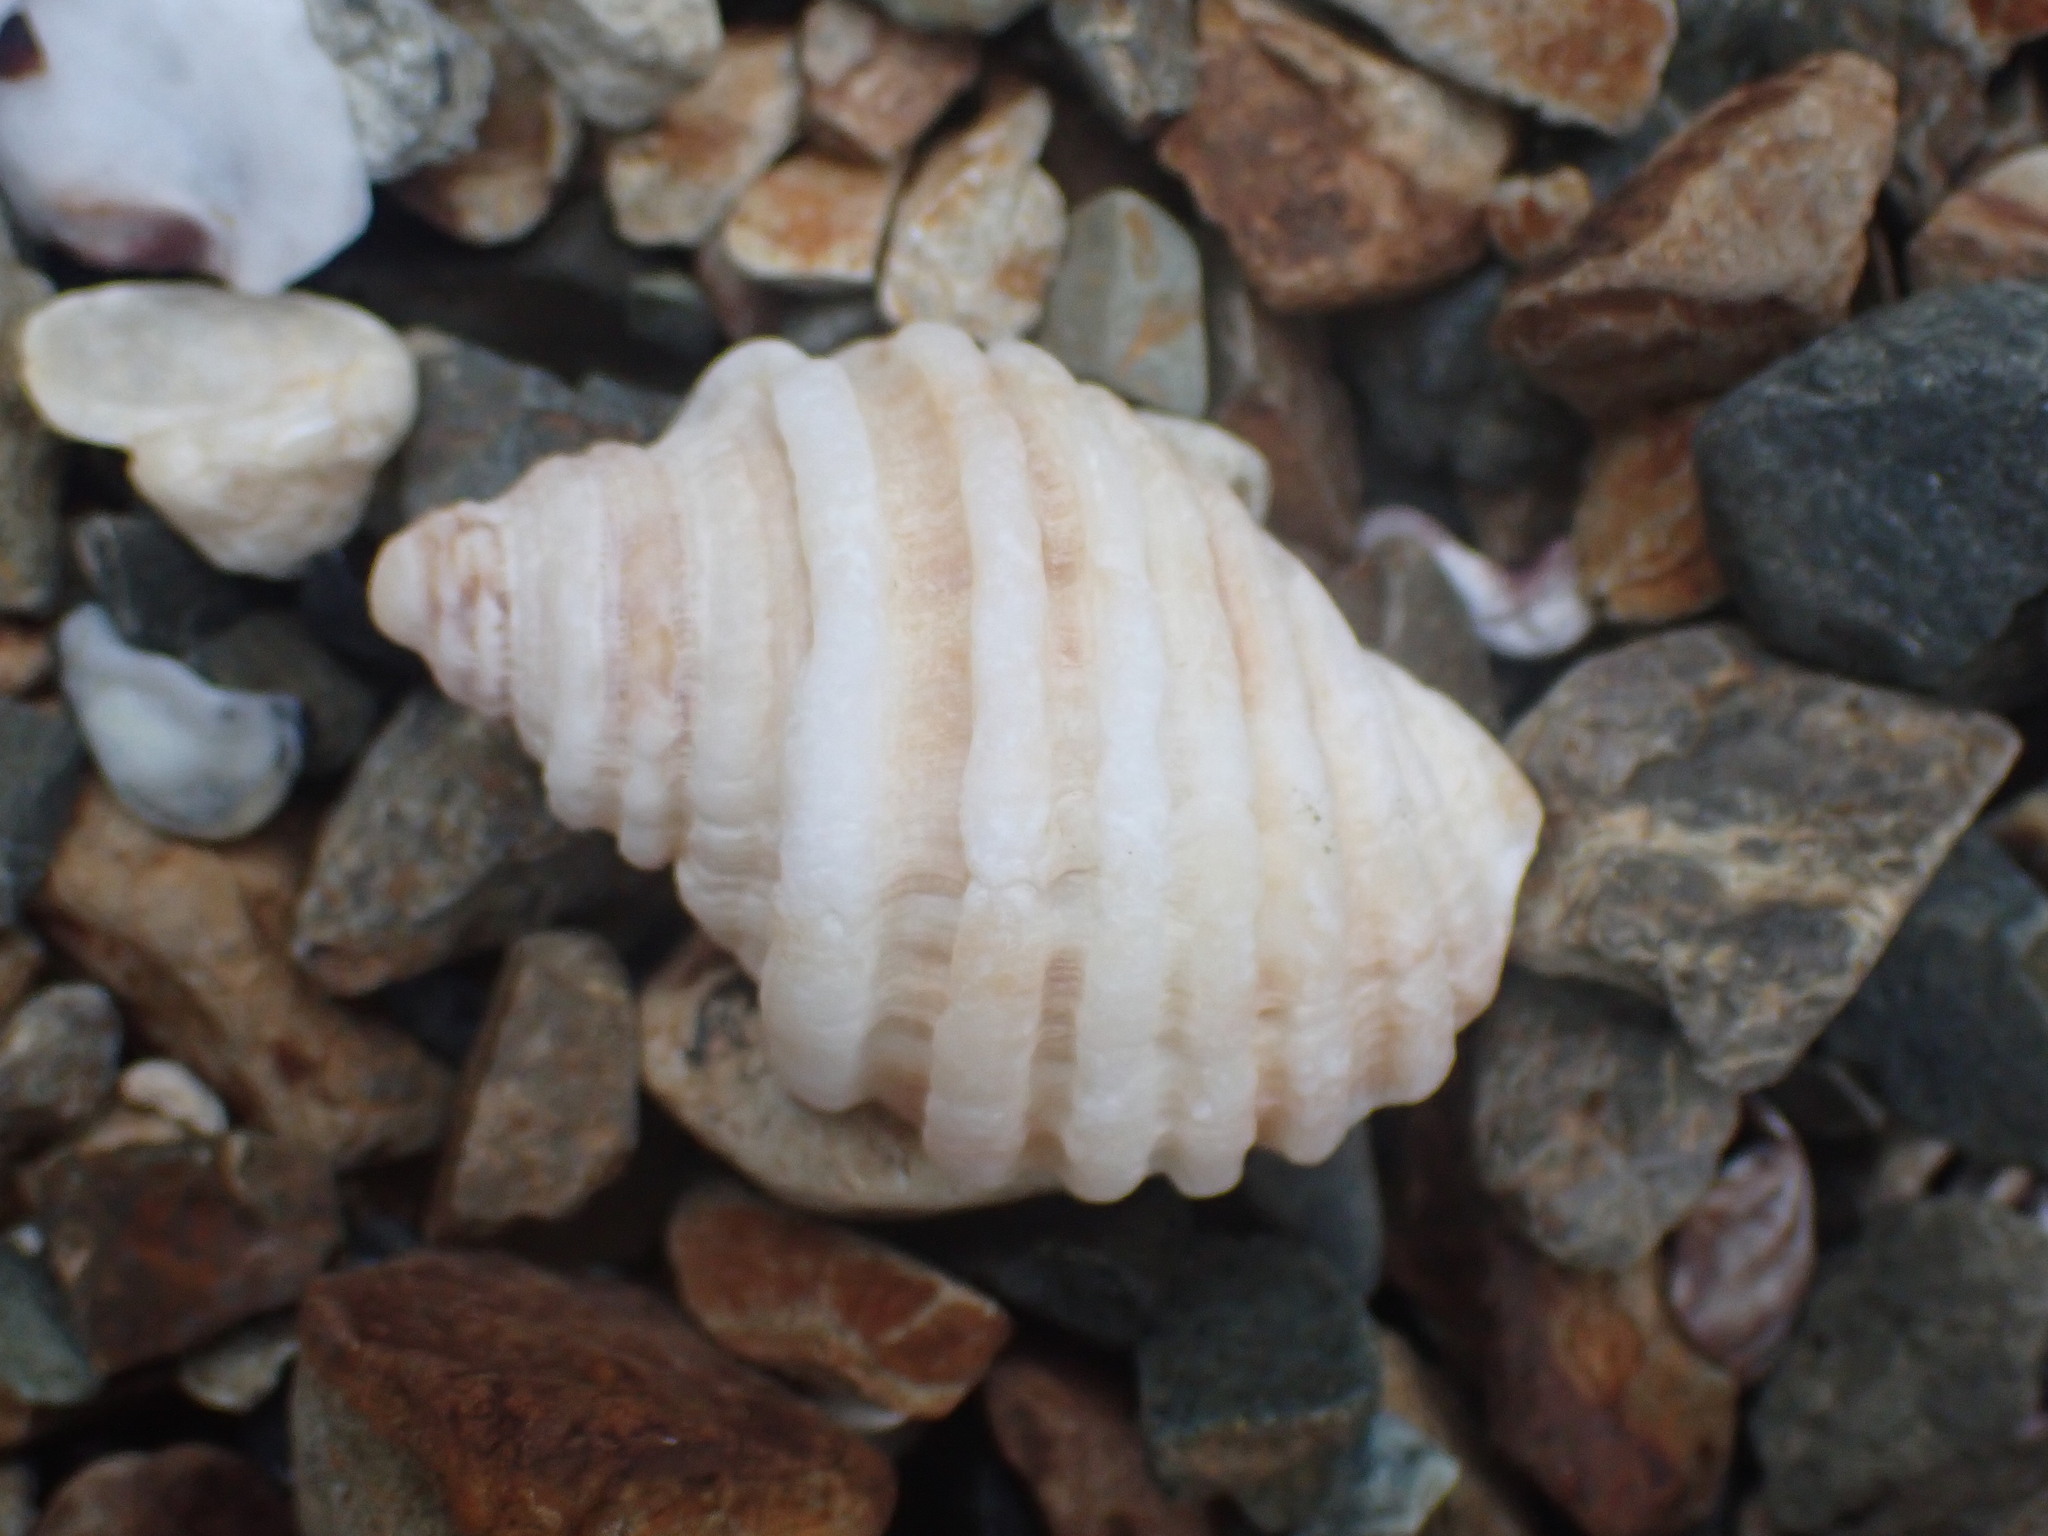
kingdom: Animalia
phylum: Mollusca
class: Gastropoda
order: Neogastropoda
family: Muricidae
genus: Dicathais
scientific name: Dicathais orbita
